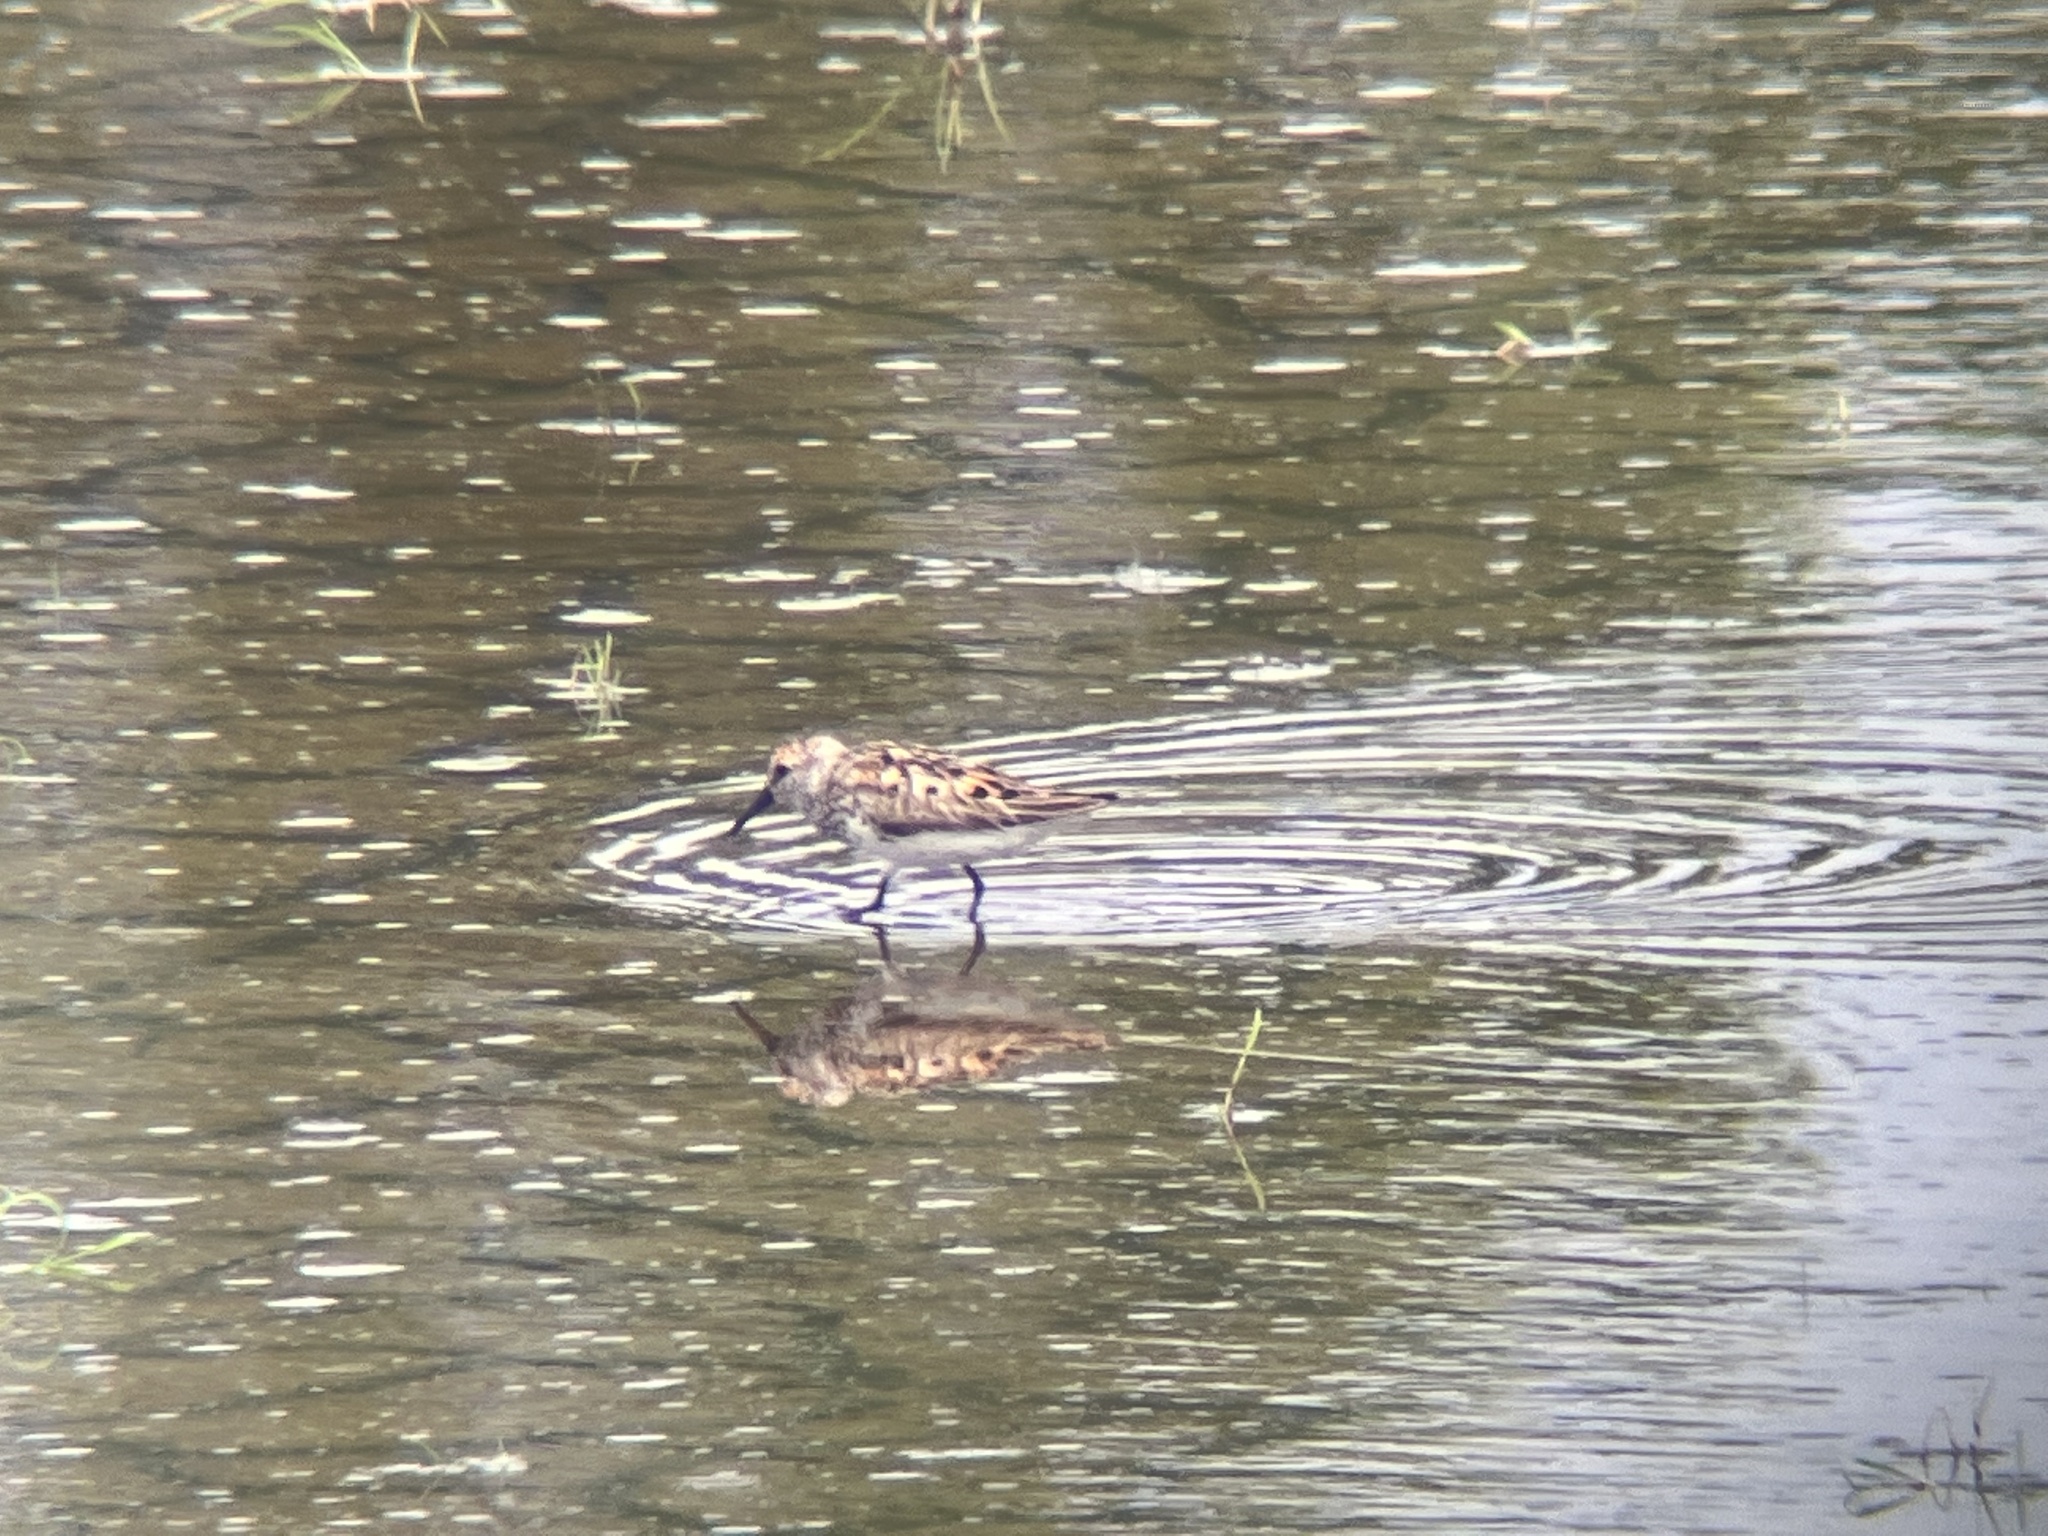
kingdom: Animalia
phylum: Chordata
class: Aves
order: Charadriiformes
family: Scolopacidae
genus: Calidris
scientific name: Calidris mauri
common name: Western sandpiper
